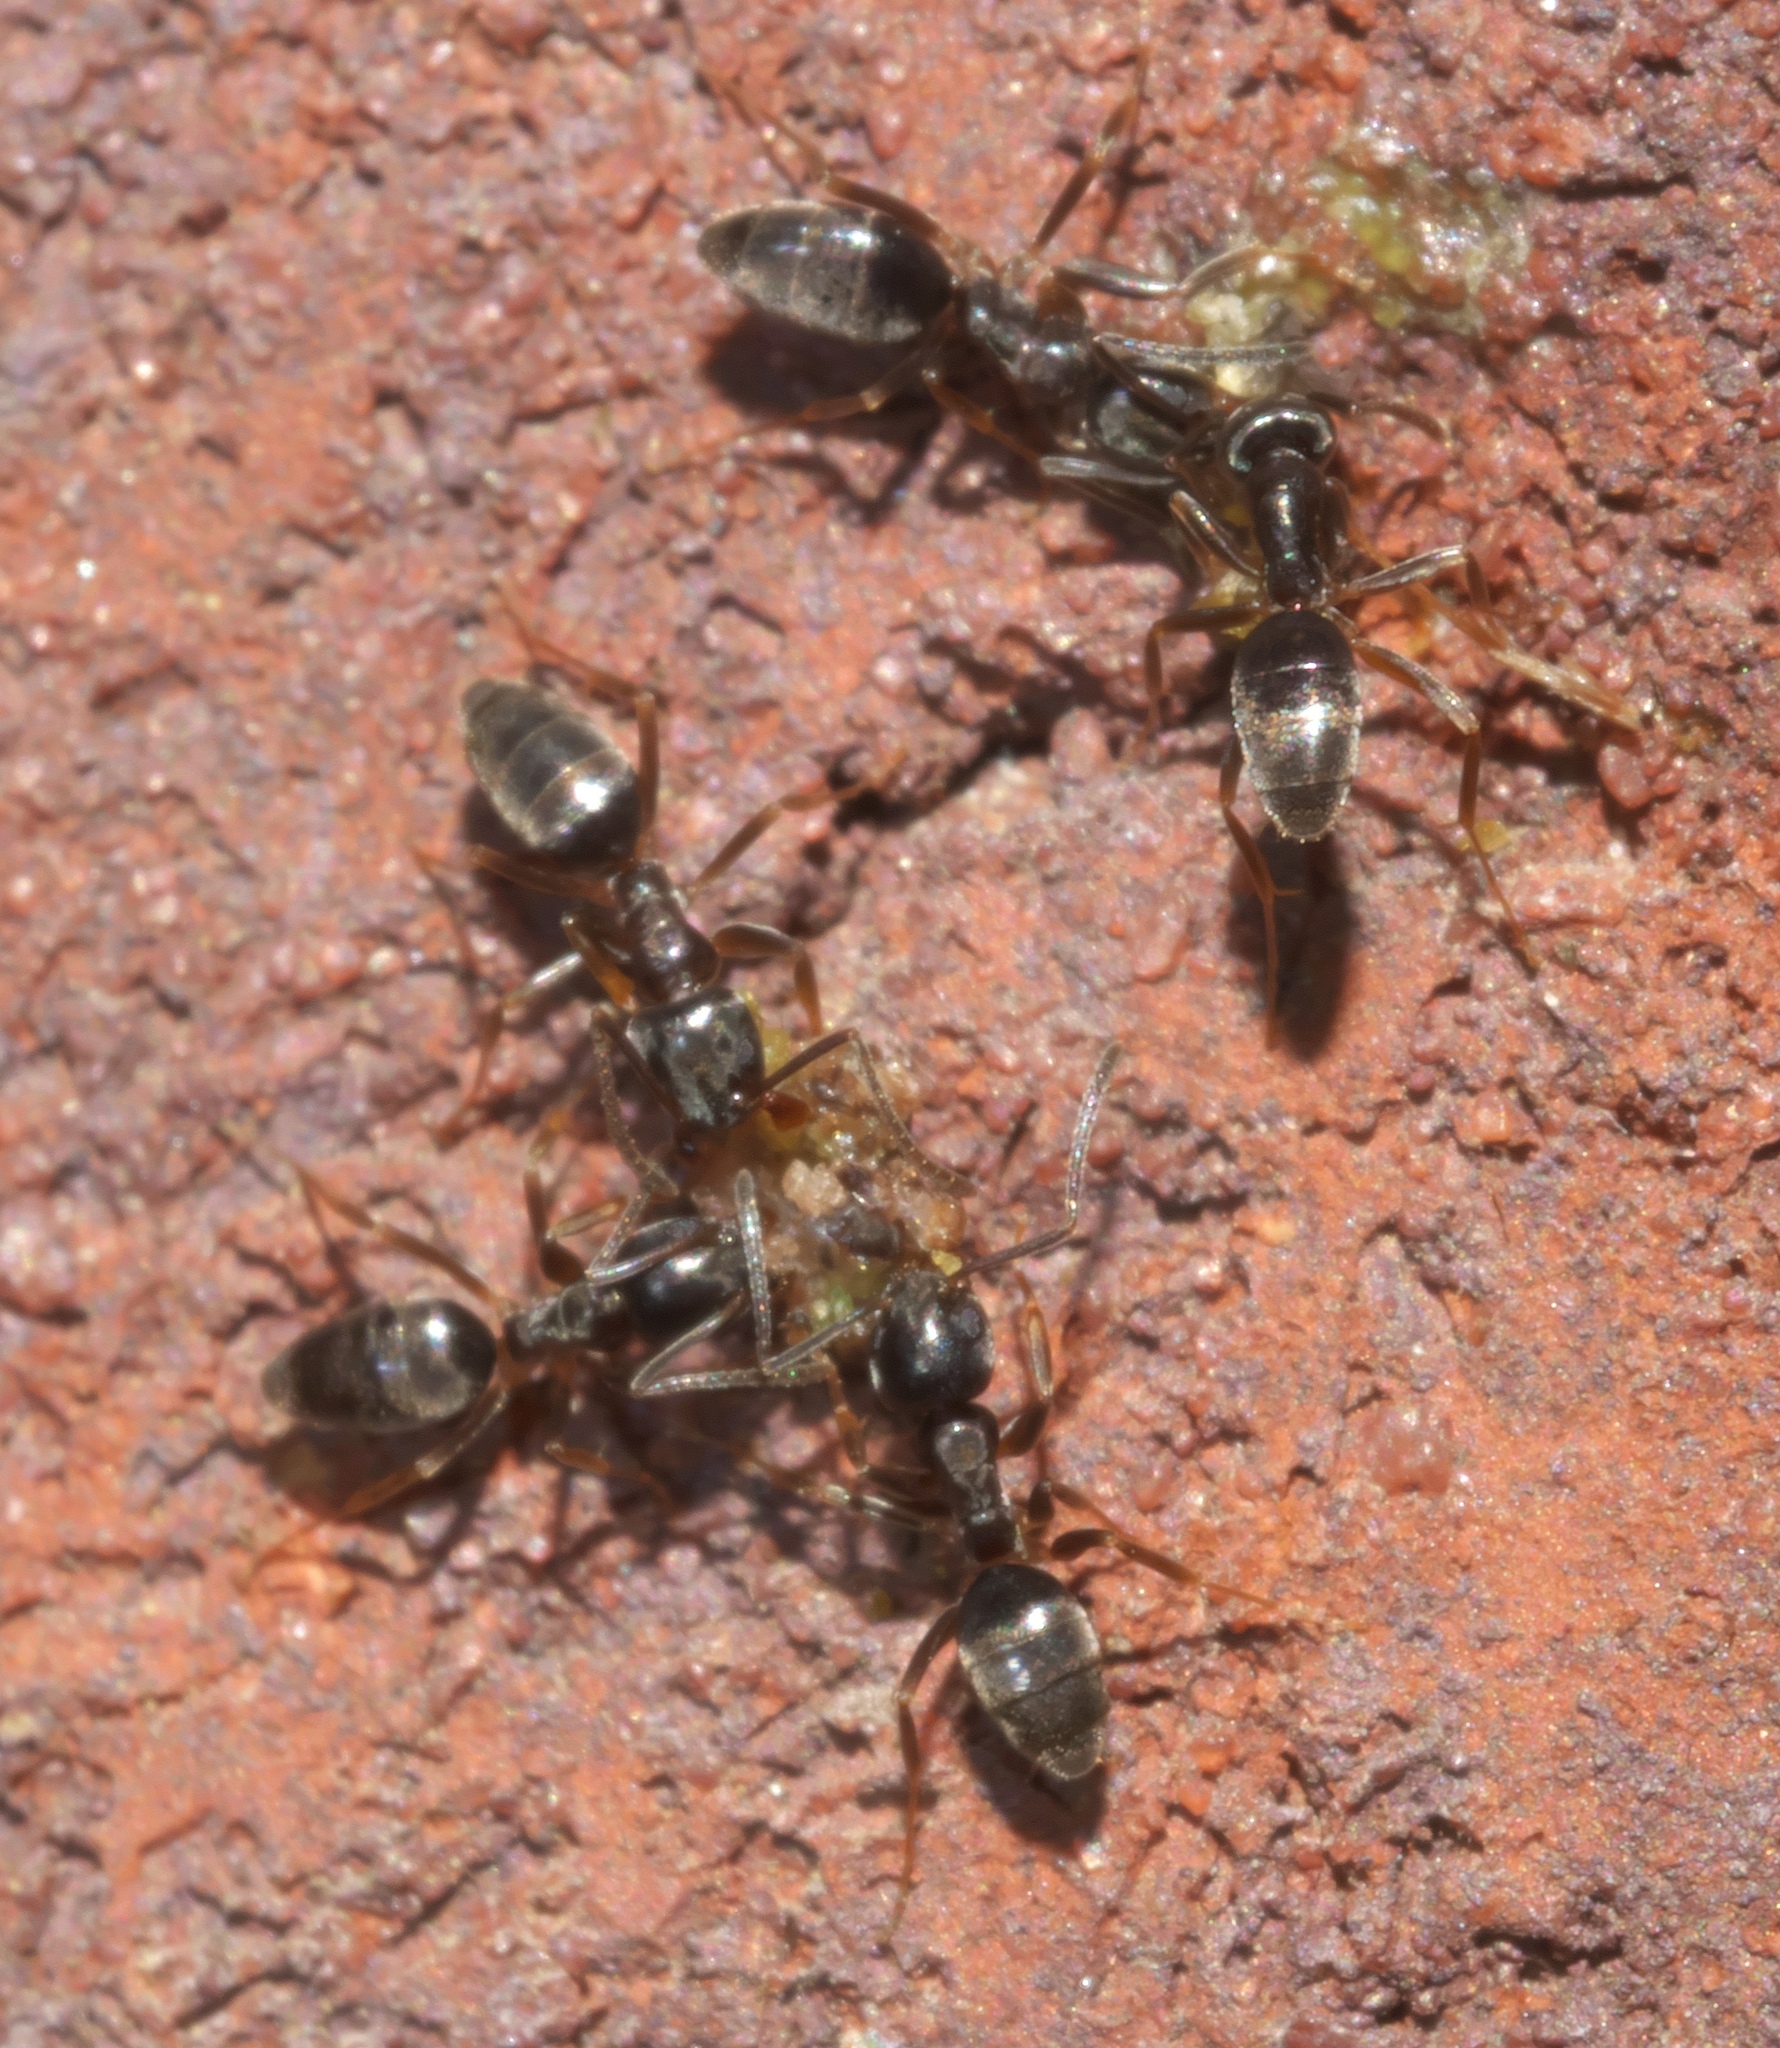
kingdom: Animalia
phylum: Arthropoda
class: Insecta
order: Hymenoptera
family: Formicidae
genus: Tapinoma
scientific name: Tapinoma sessile
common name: Odorous house ant
